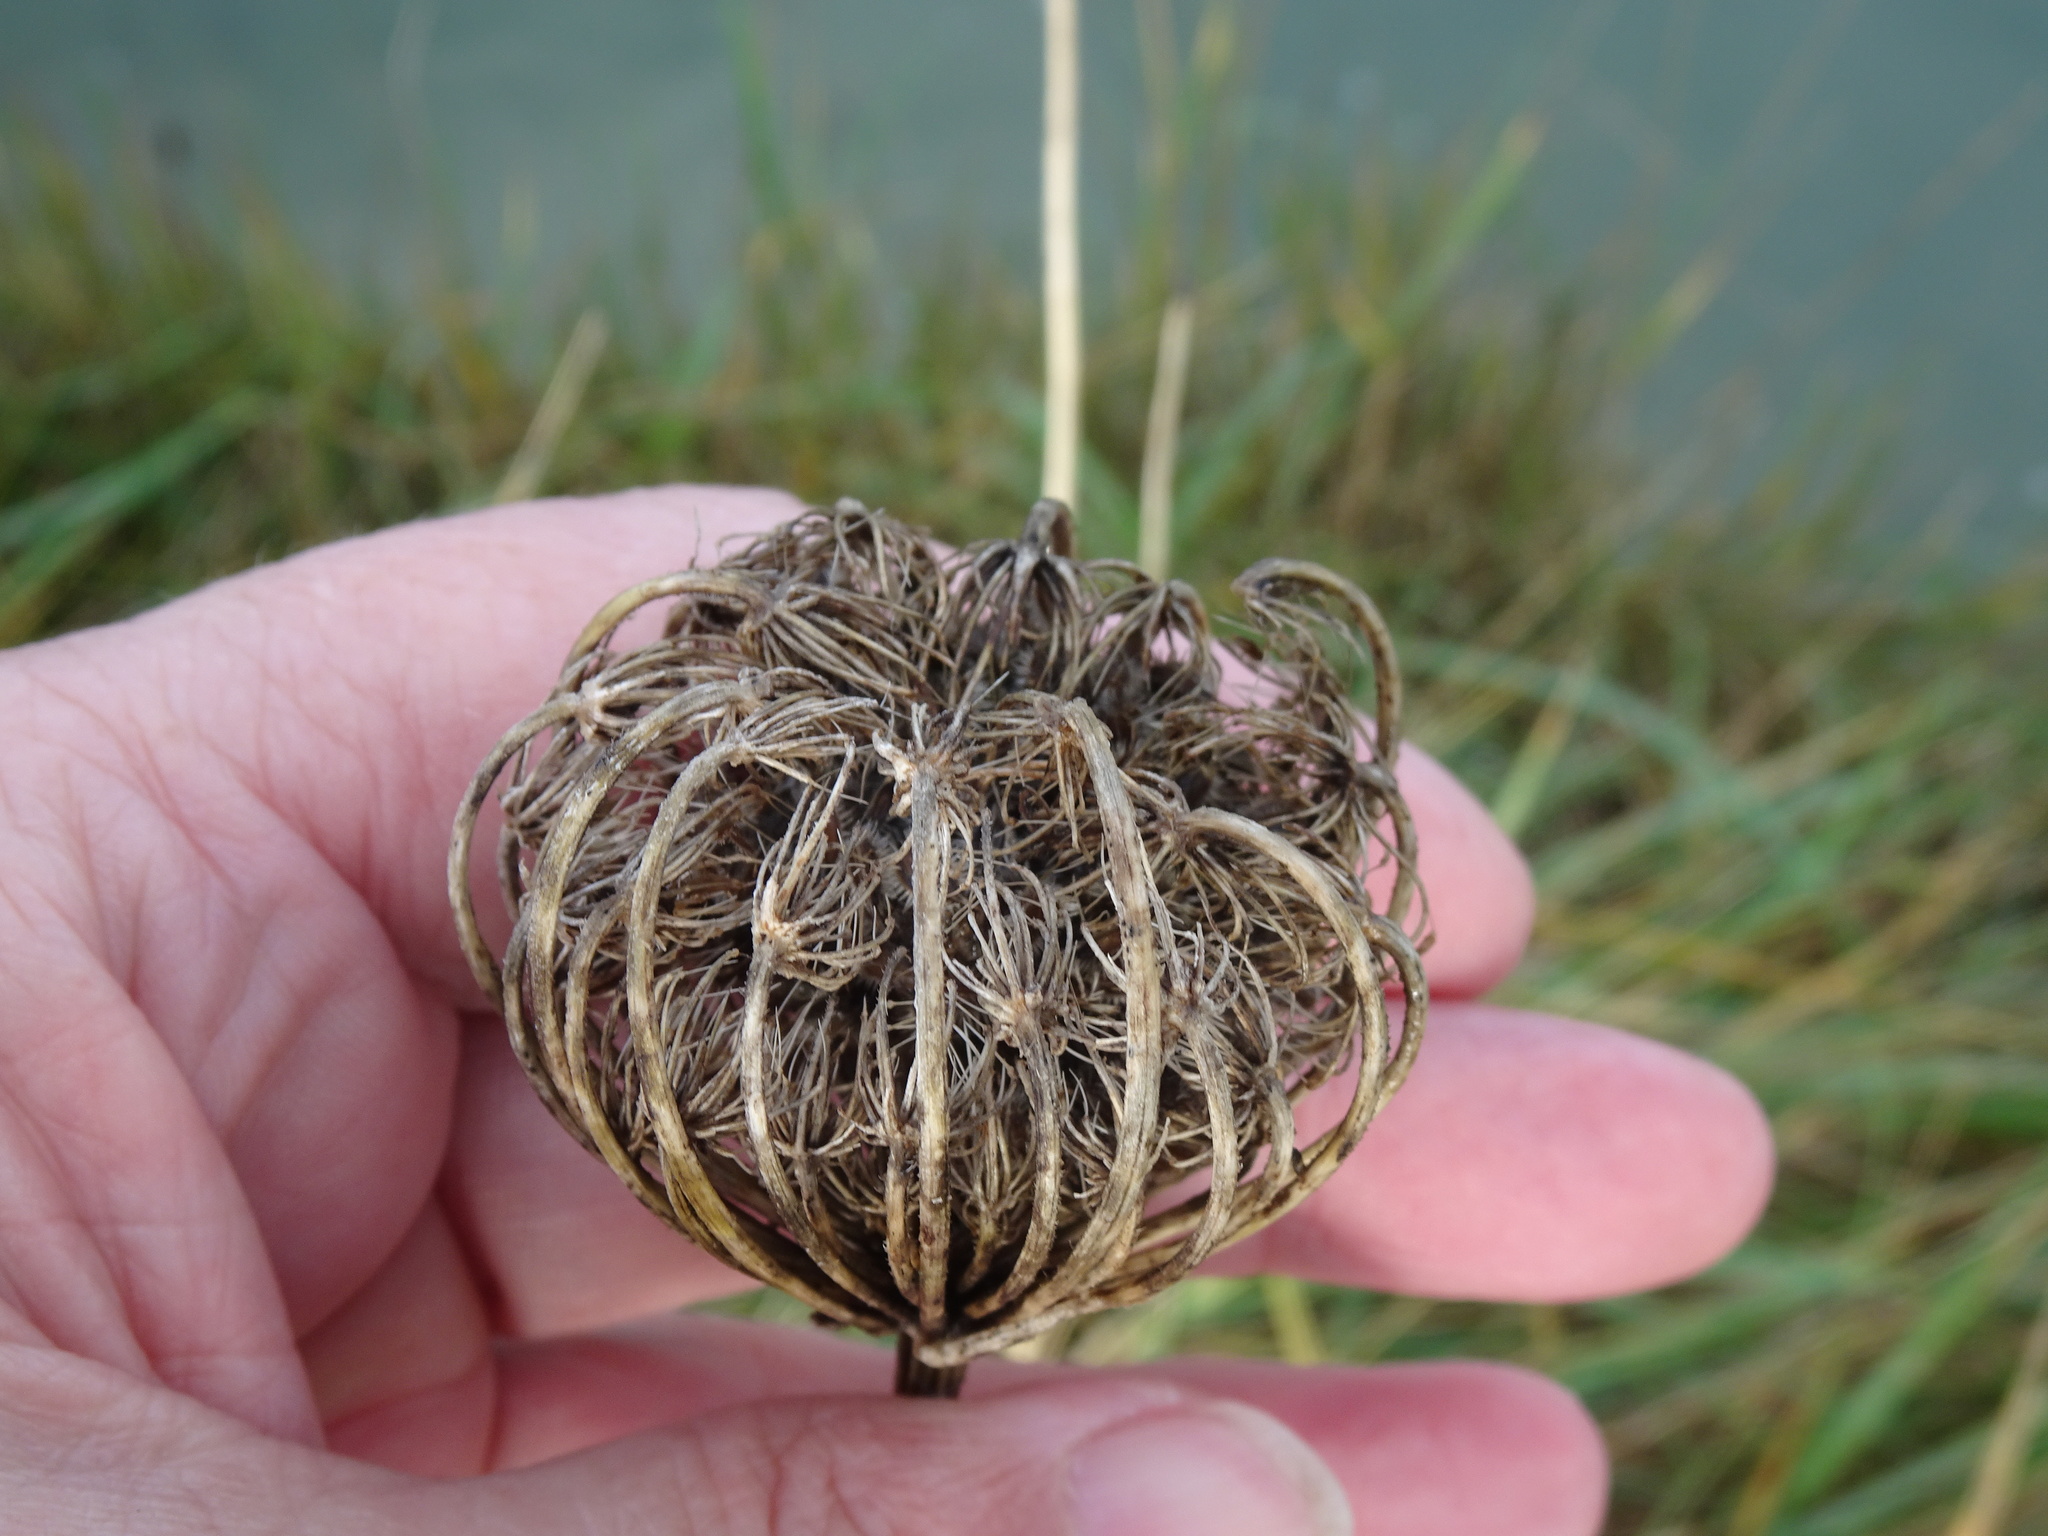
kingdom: Plantae
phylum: Tracheophyta
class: Magnoliopsida
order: Apiales
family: Apiaceae
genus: Daucus
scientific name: Daucus carota
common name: Wild carrot
